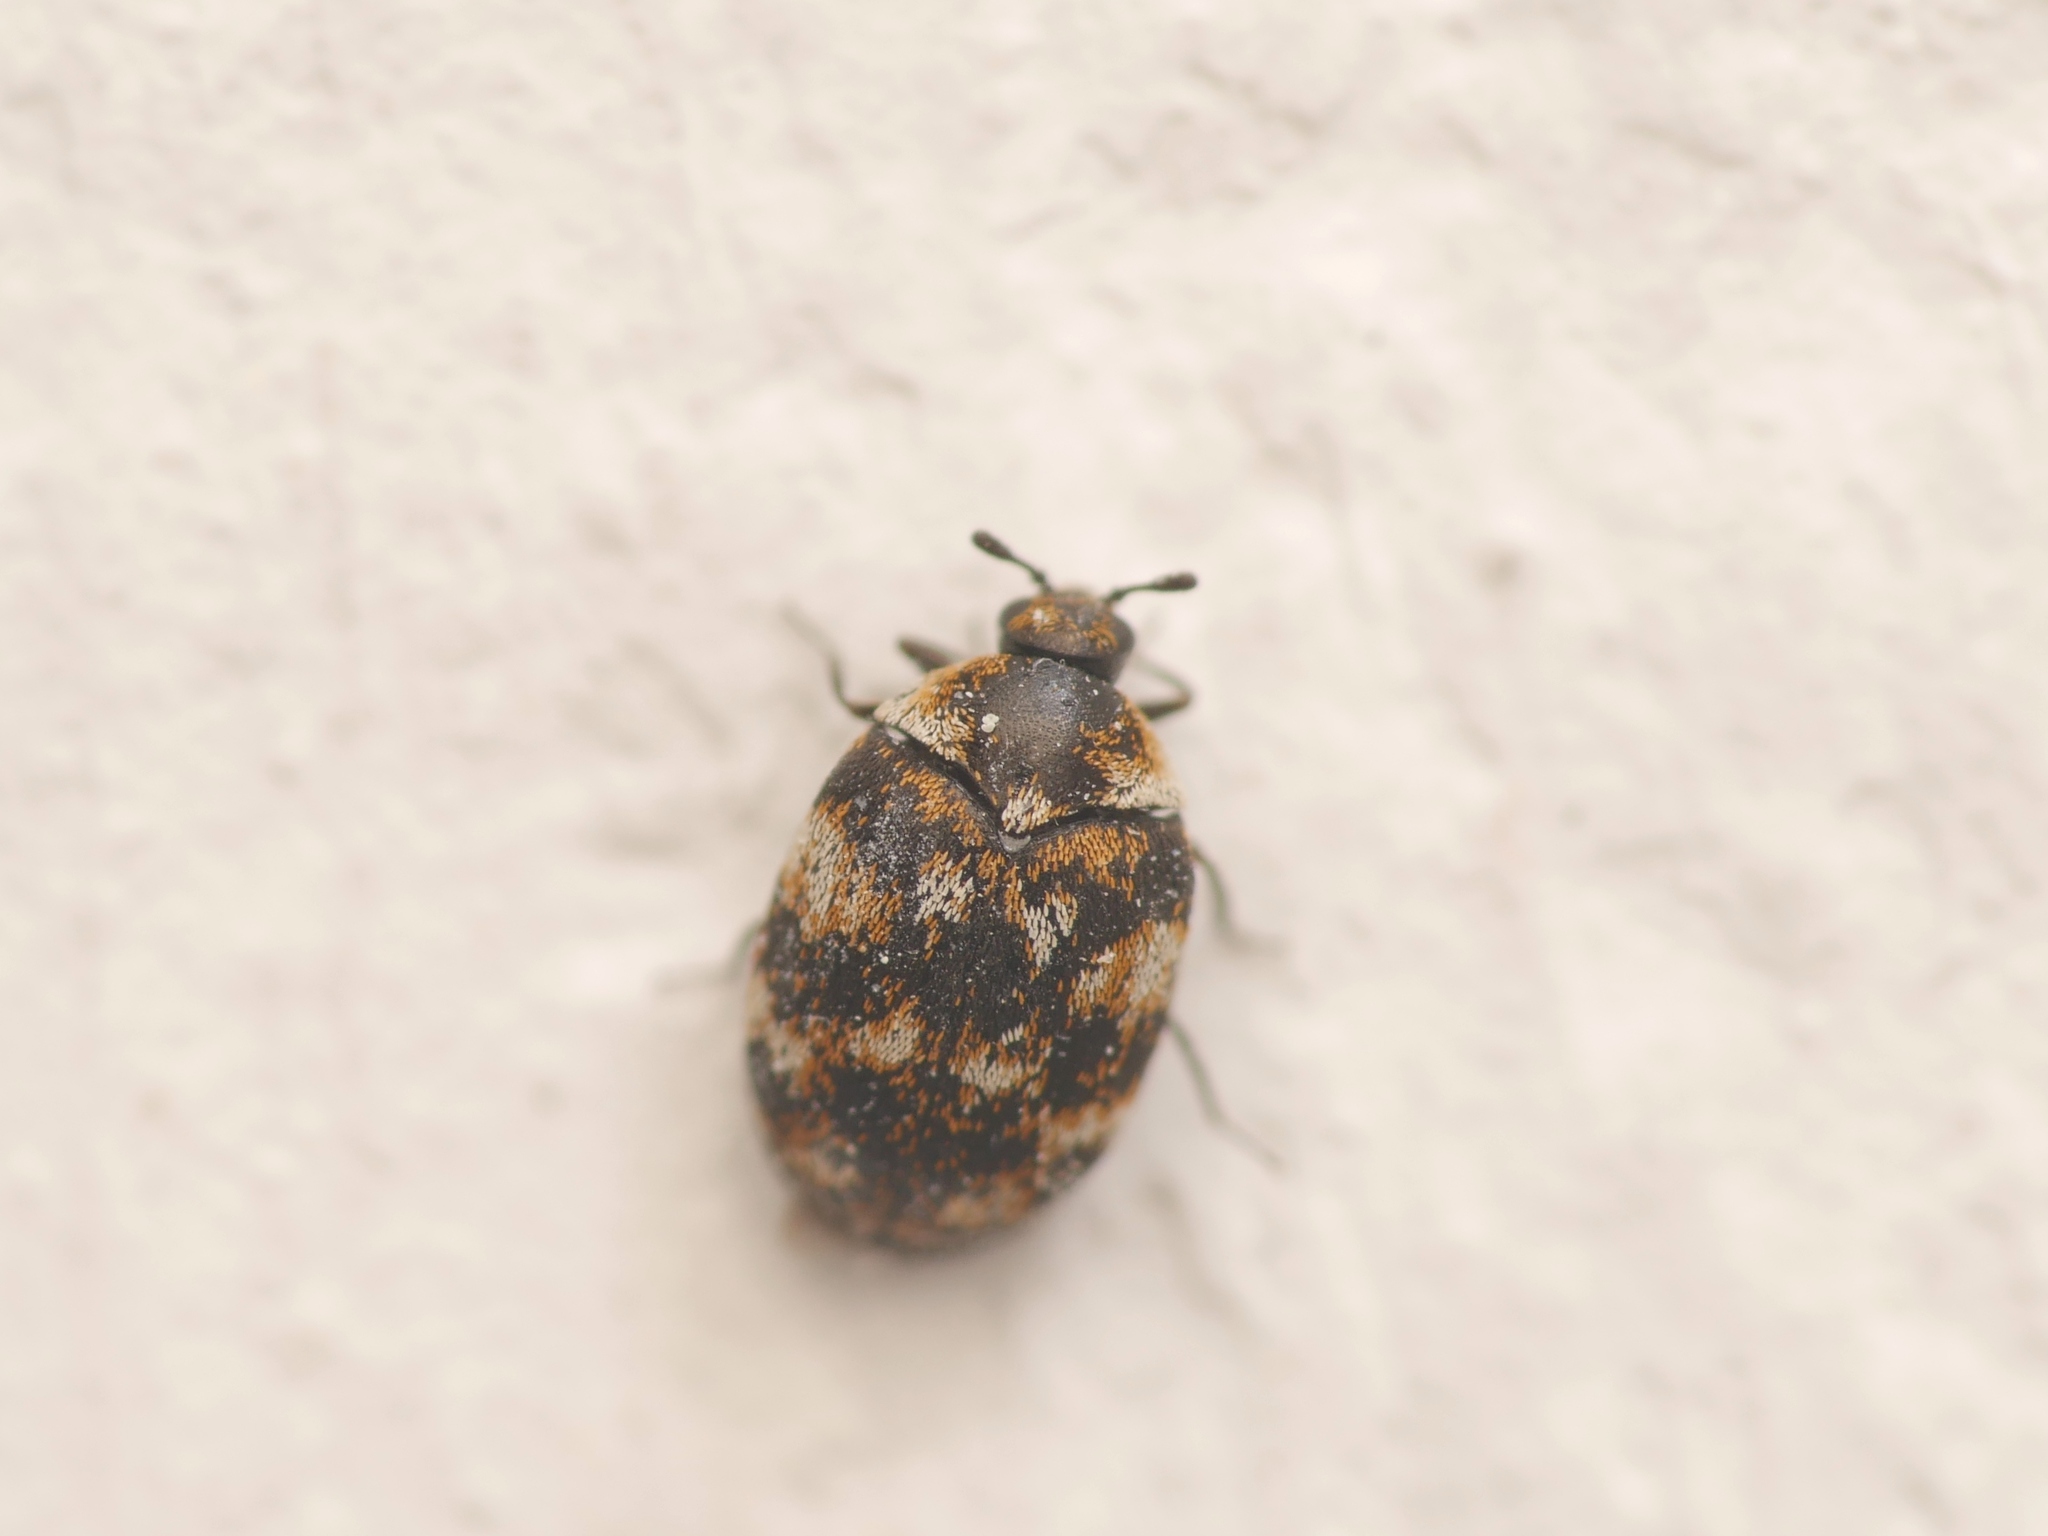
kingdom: Animalia
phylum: Arthropoda
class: Insecta
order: Coleoptera
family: Dermestidae
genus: Anthrenus
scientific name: Anthrenus verbasci
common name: Varied carpet beetle
